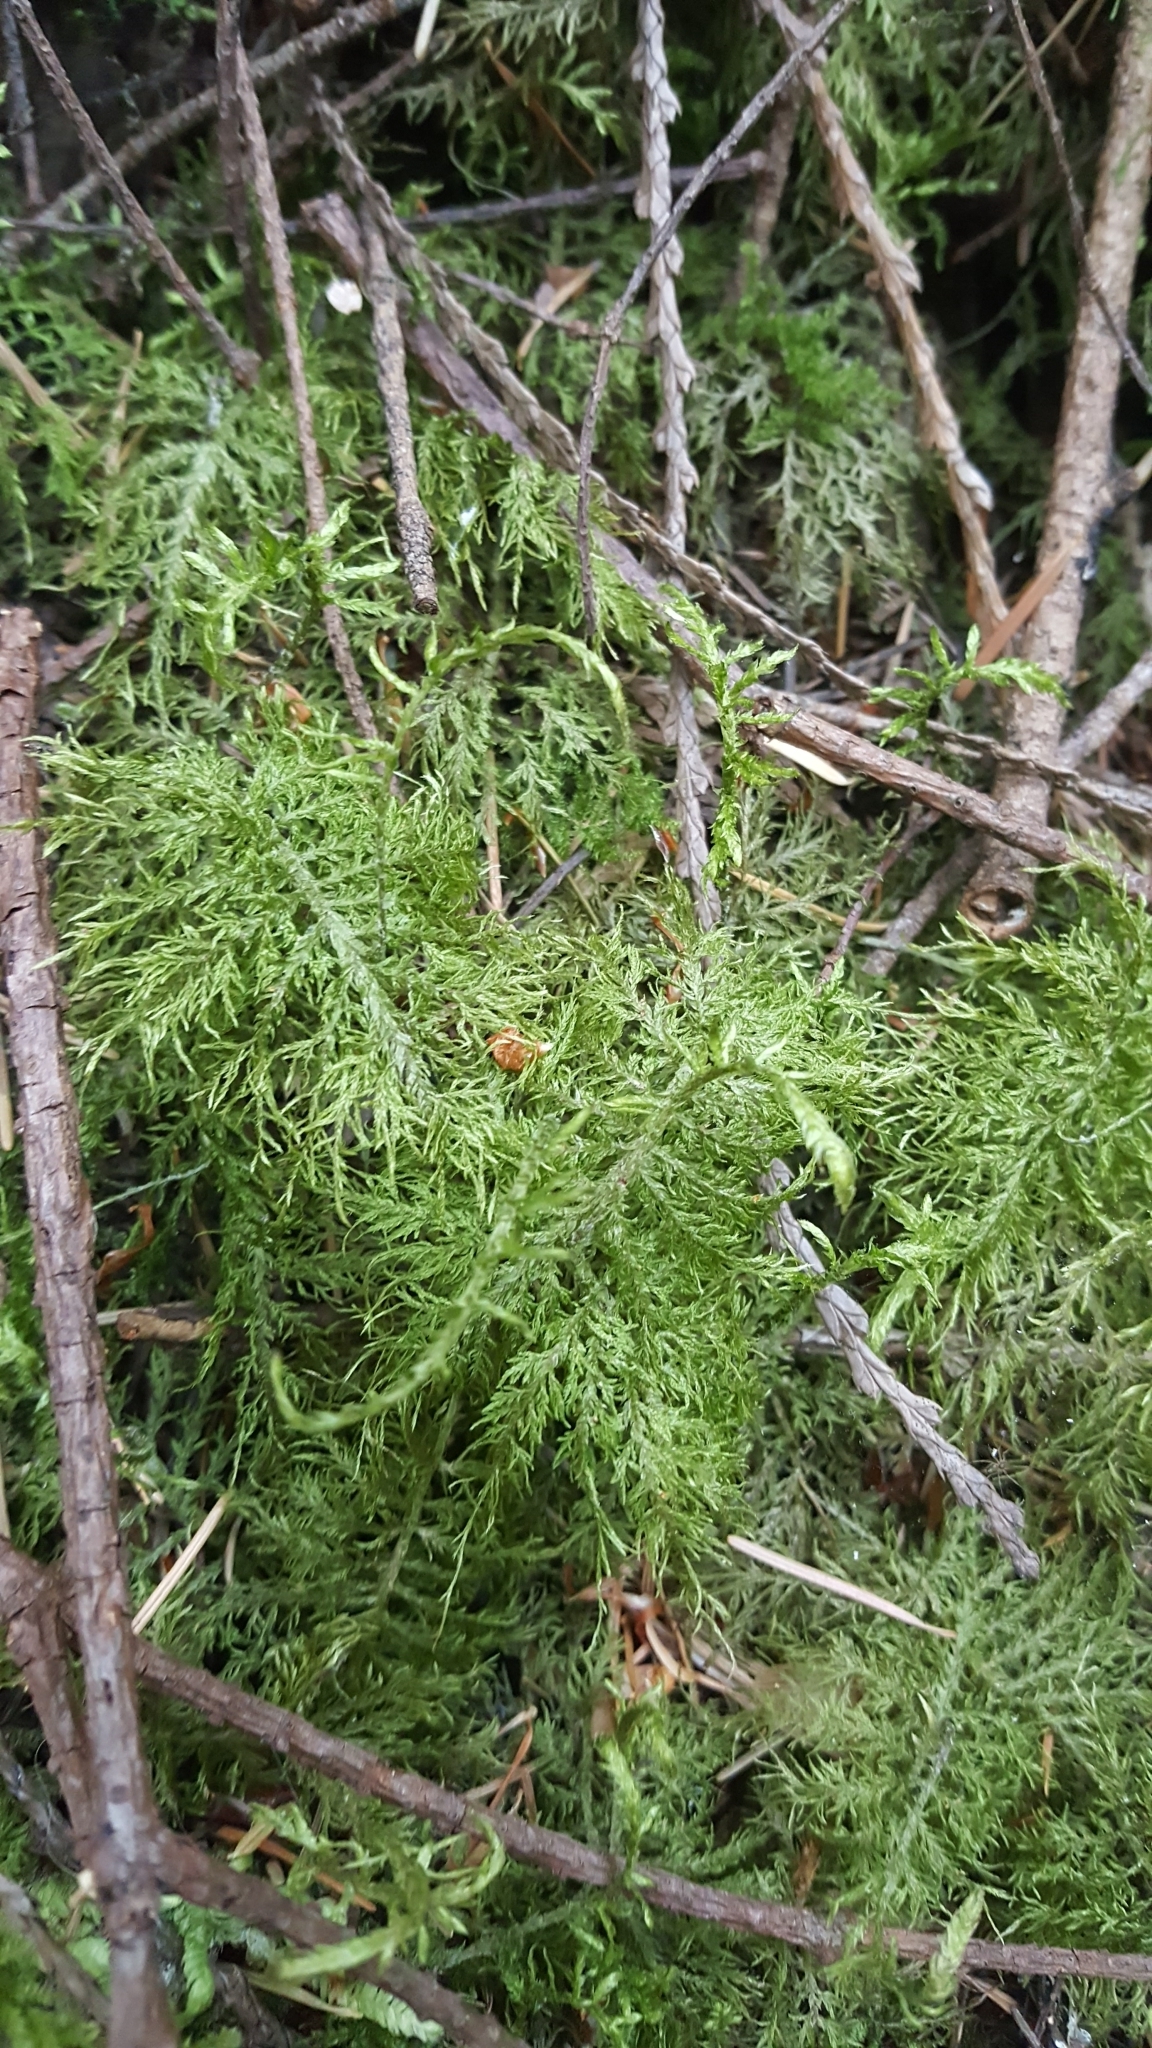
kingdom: Plantae
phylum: Bryophyta
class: Bryopsida
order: Hypnales
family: Hylocomiaceae
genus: Hylocomium
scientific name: Hylocomium splendens
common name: Stairstep moss
